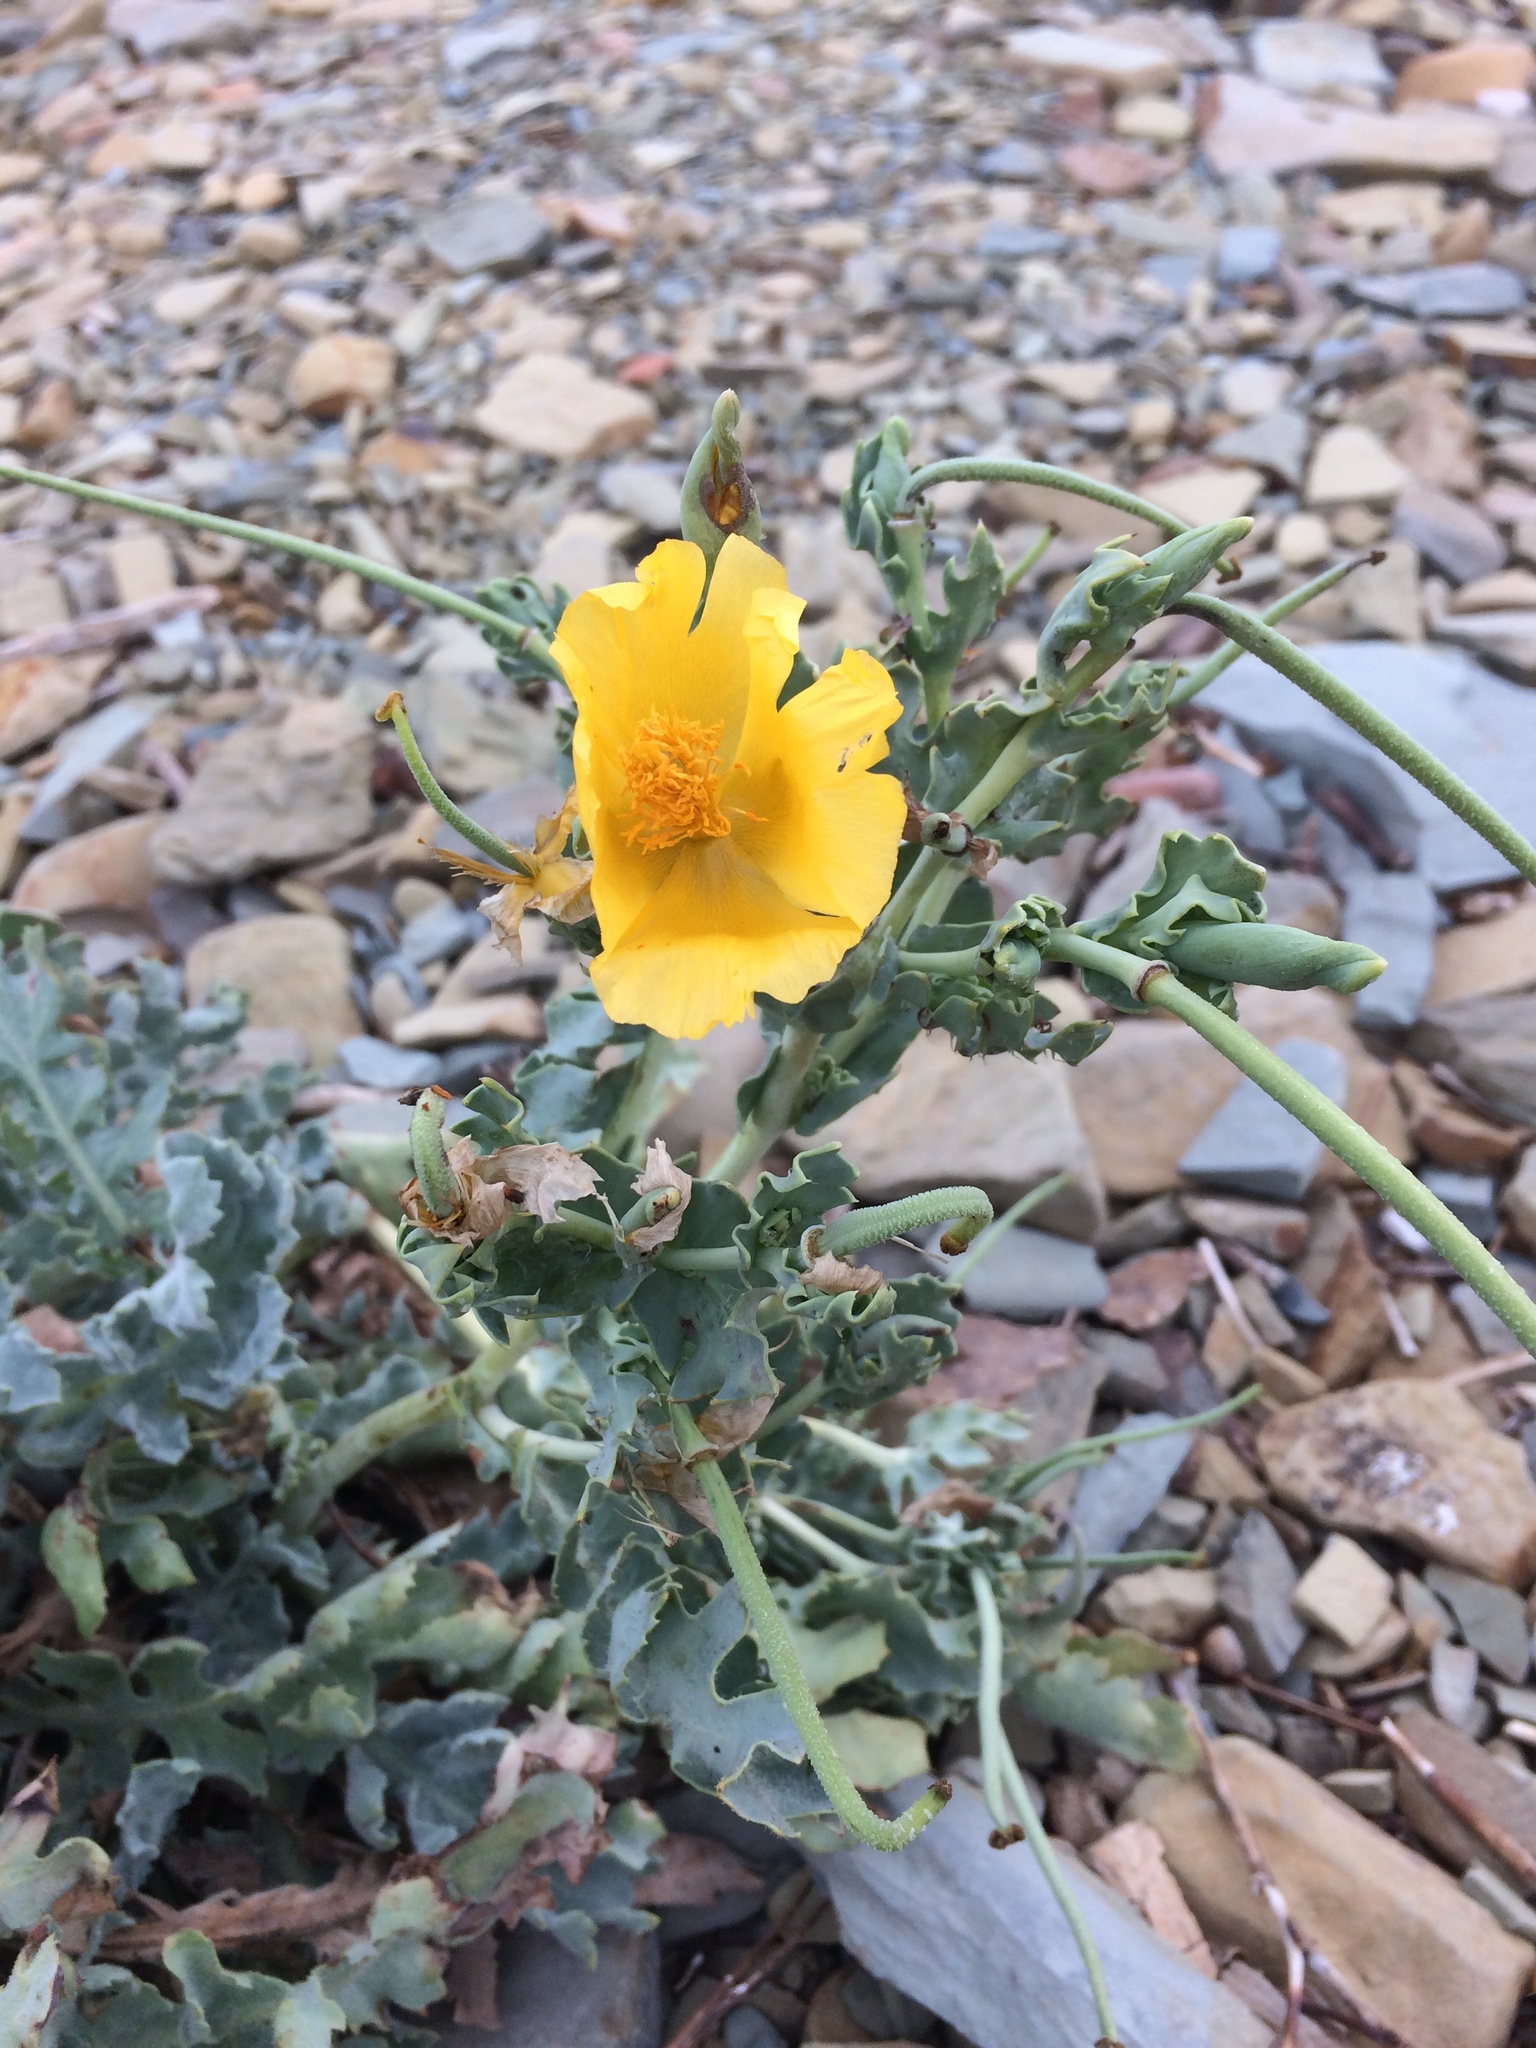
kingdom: Plantae
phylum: Tracheophyta
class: Magnoliopsida
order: Ranunculales
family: Papaveraceae
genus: Glaucium
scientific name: Glaucium flavum
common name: Yellow horned-poppy
